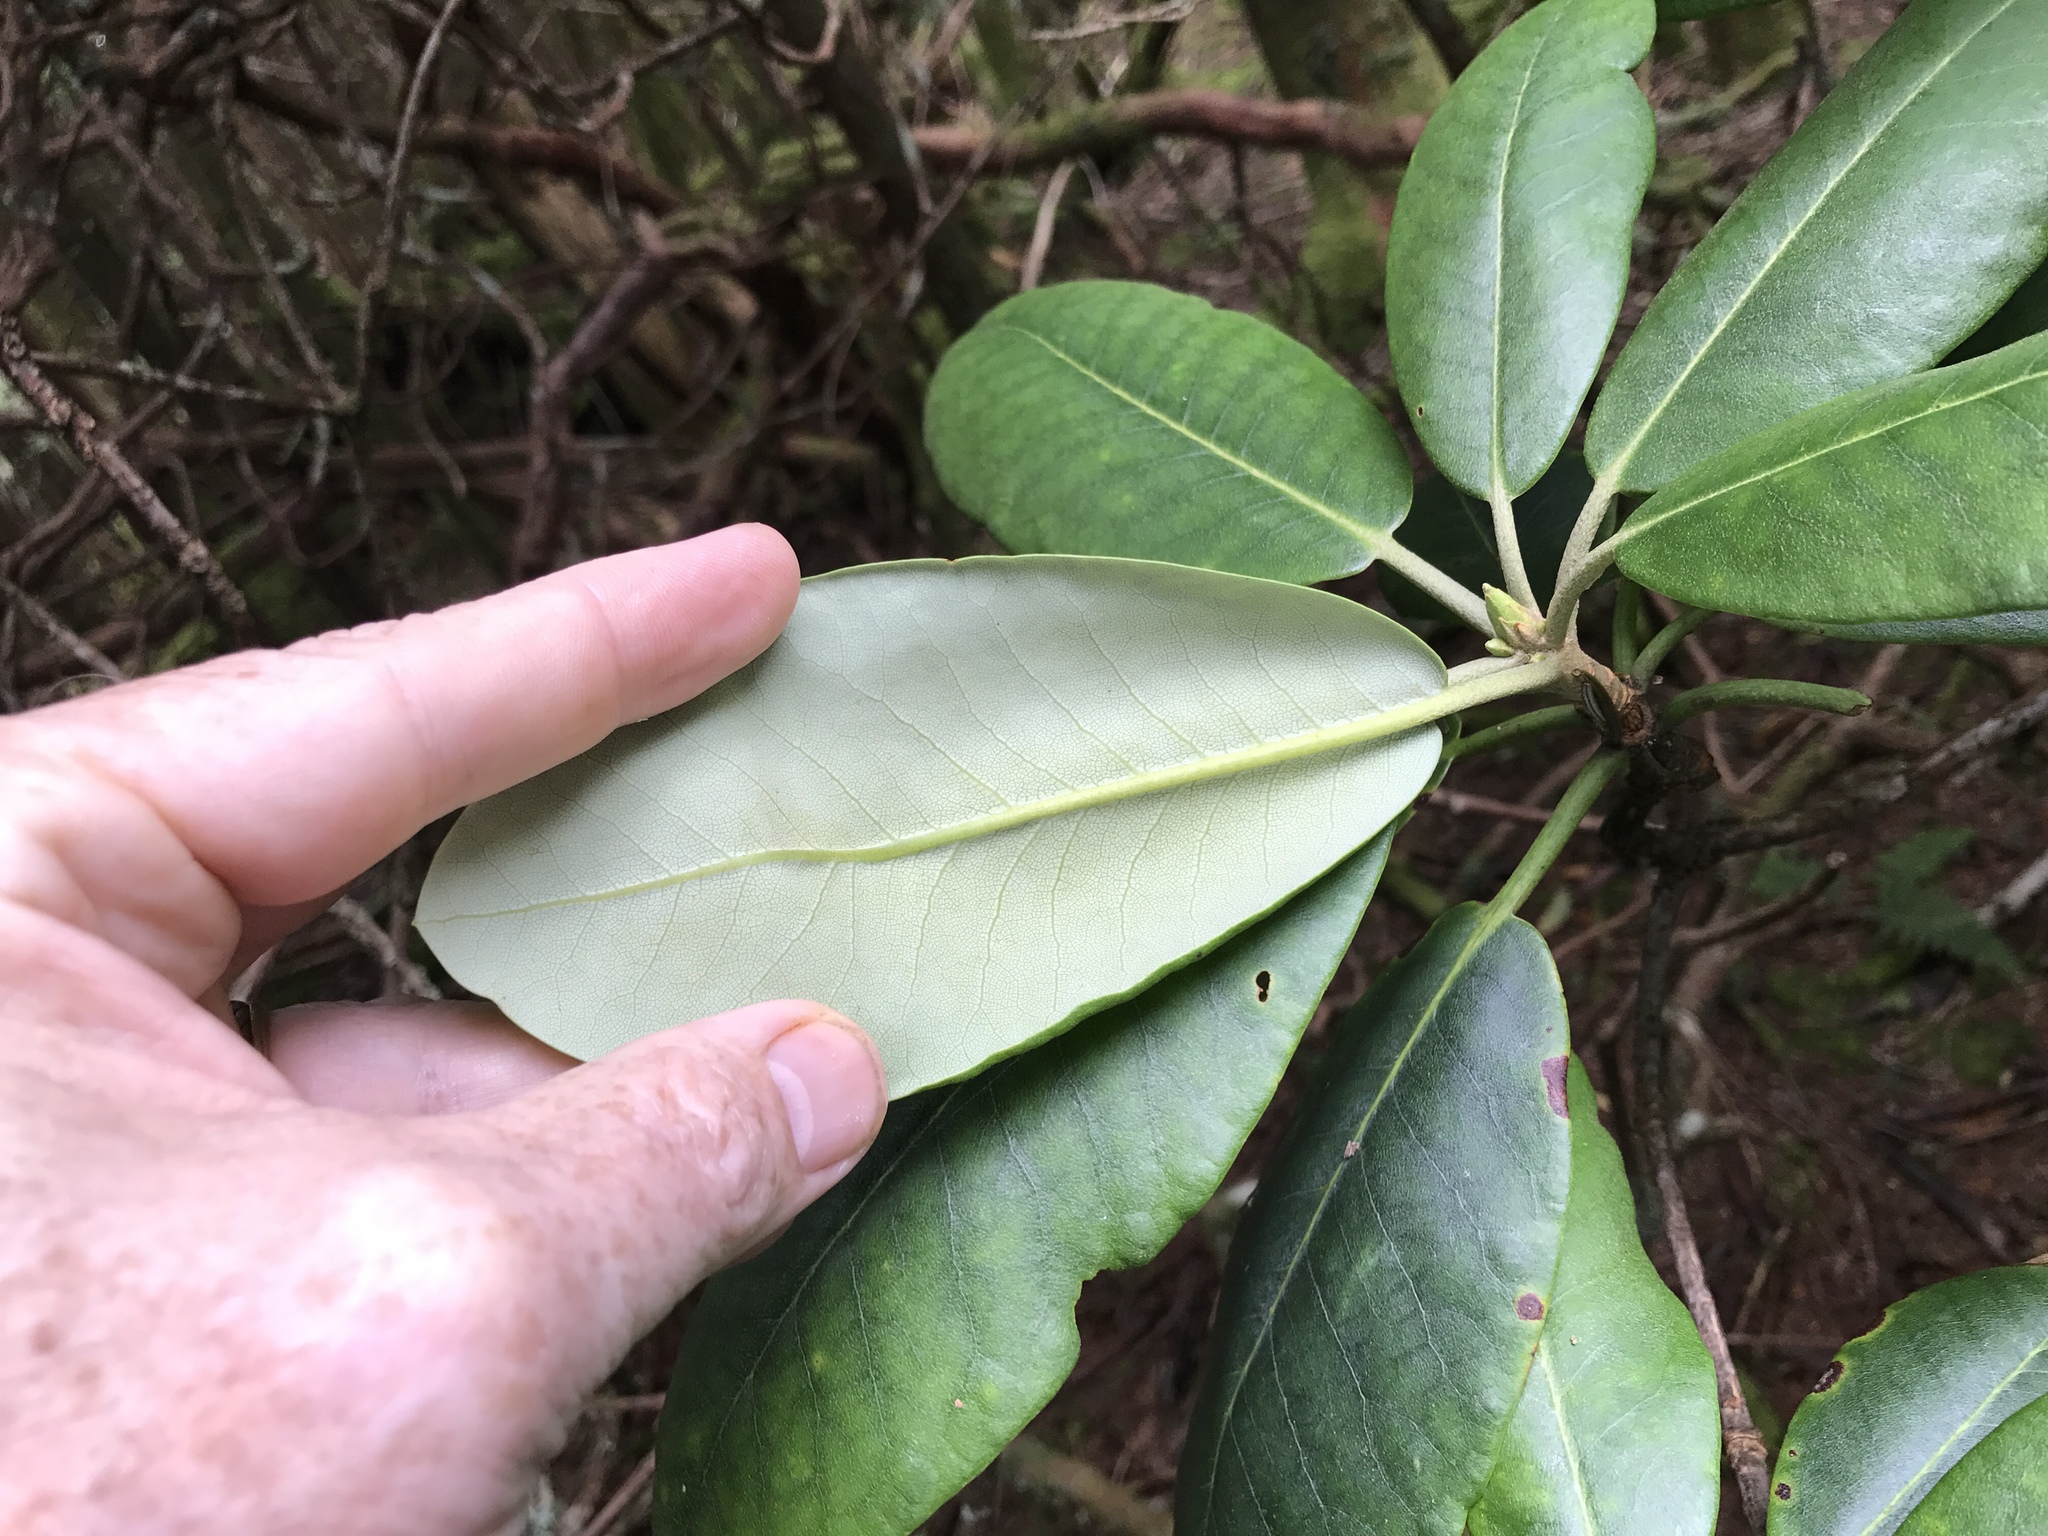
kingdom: Plantae
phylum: Tracheophyta
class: Magnoliopsida
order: Ericales
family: Ericaceae
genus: Rhododendron
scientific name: Rhododendron catawbiense
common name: Catawba rhododendron
